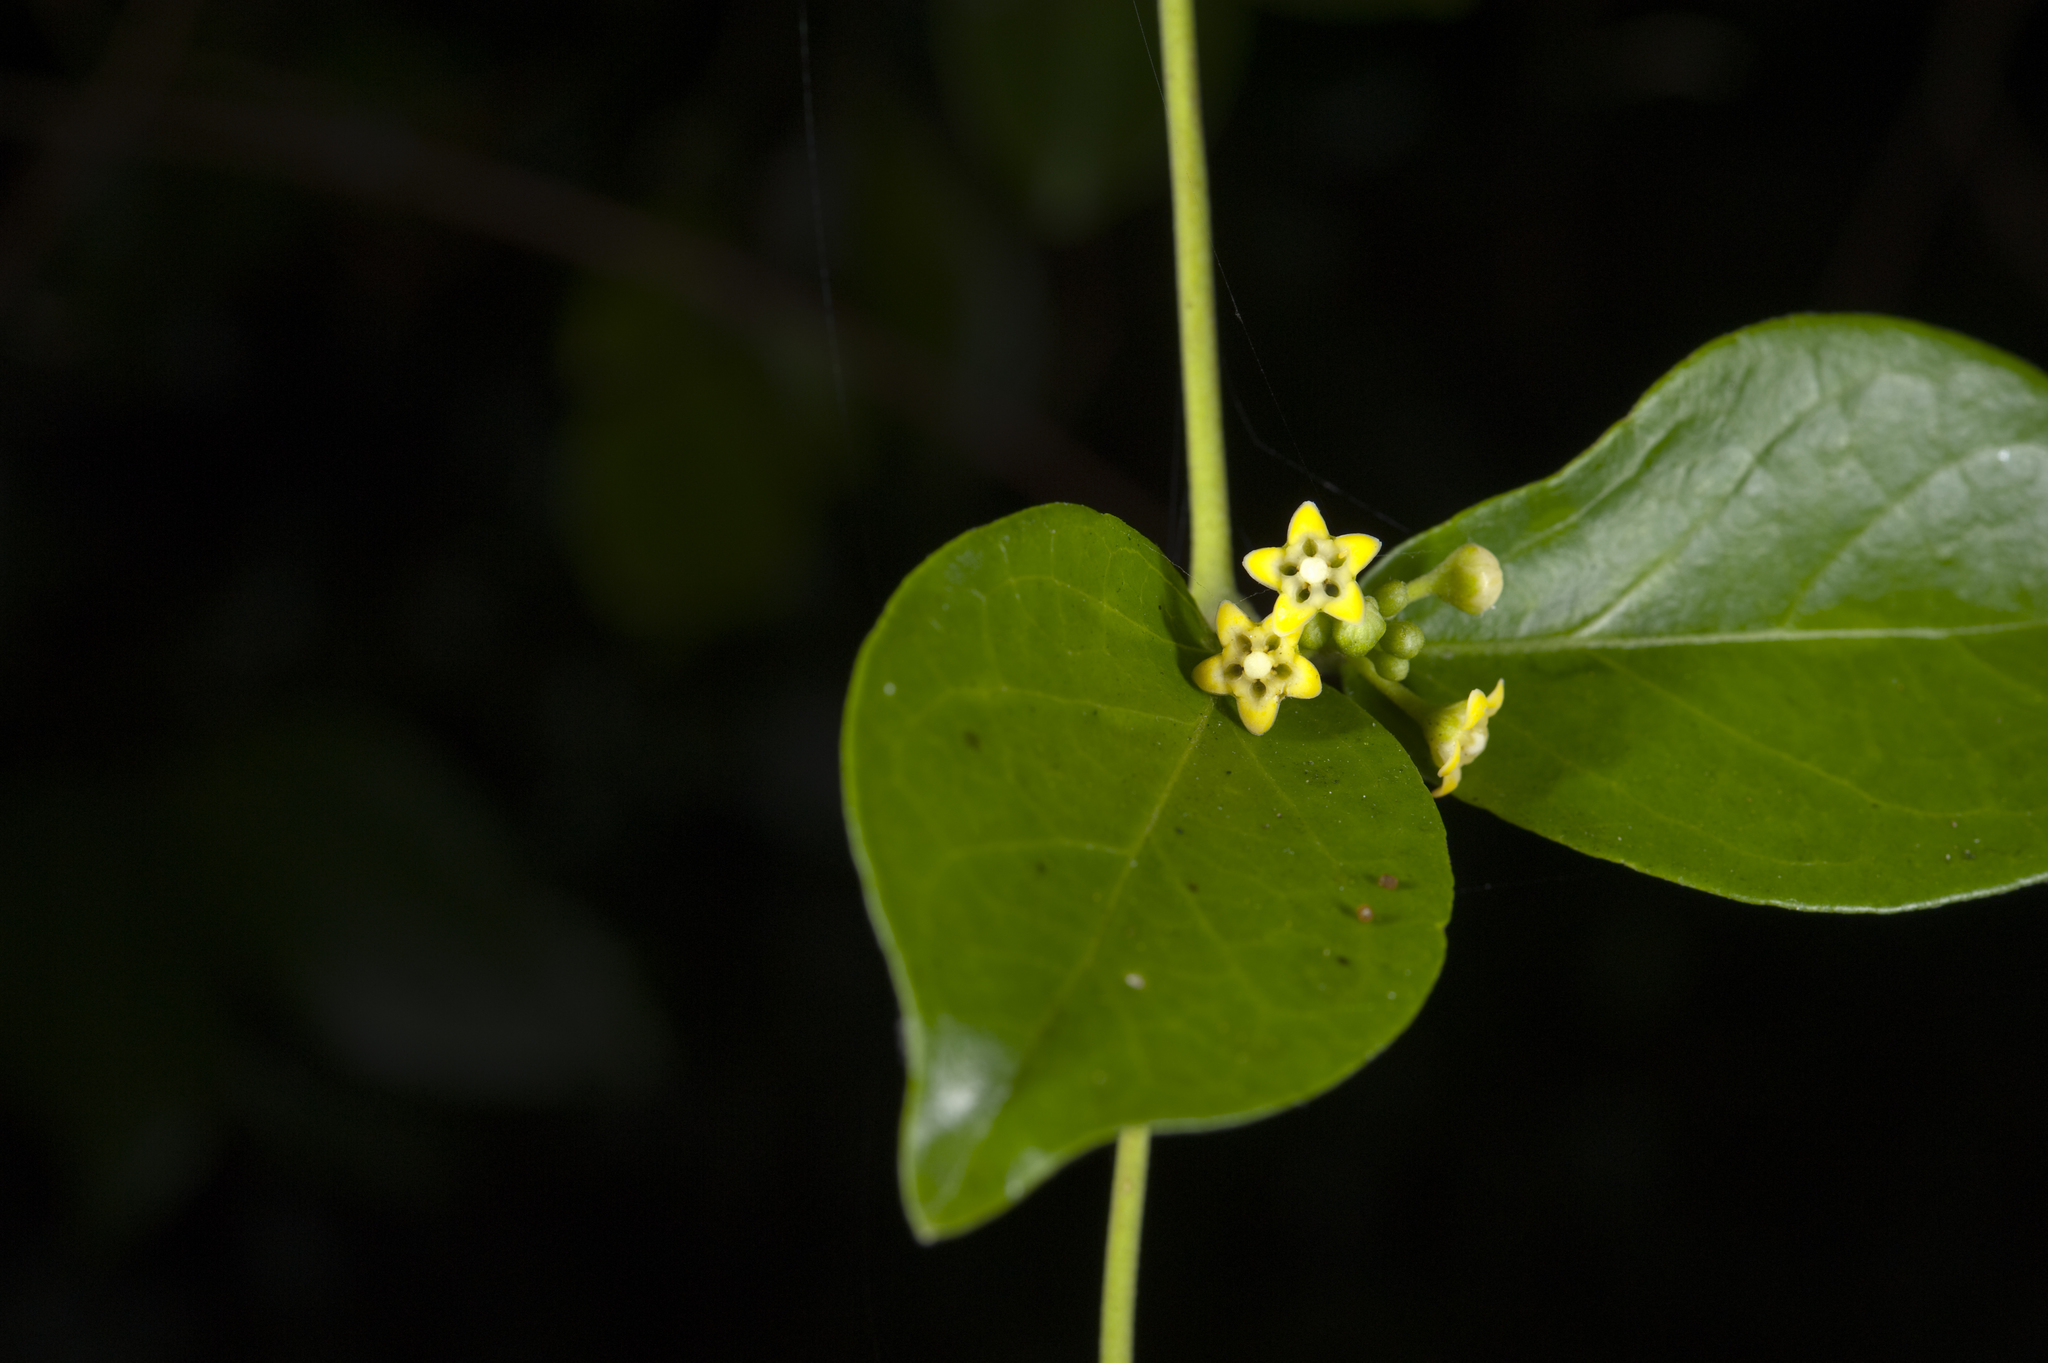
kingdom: Plantae
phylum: Tracheophyta
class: Magnoliopsida
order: Gentianales
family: Apocynaceae
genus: Gymnema
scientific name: Gymnema sylvestre
